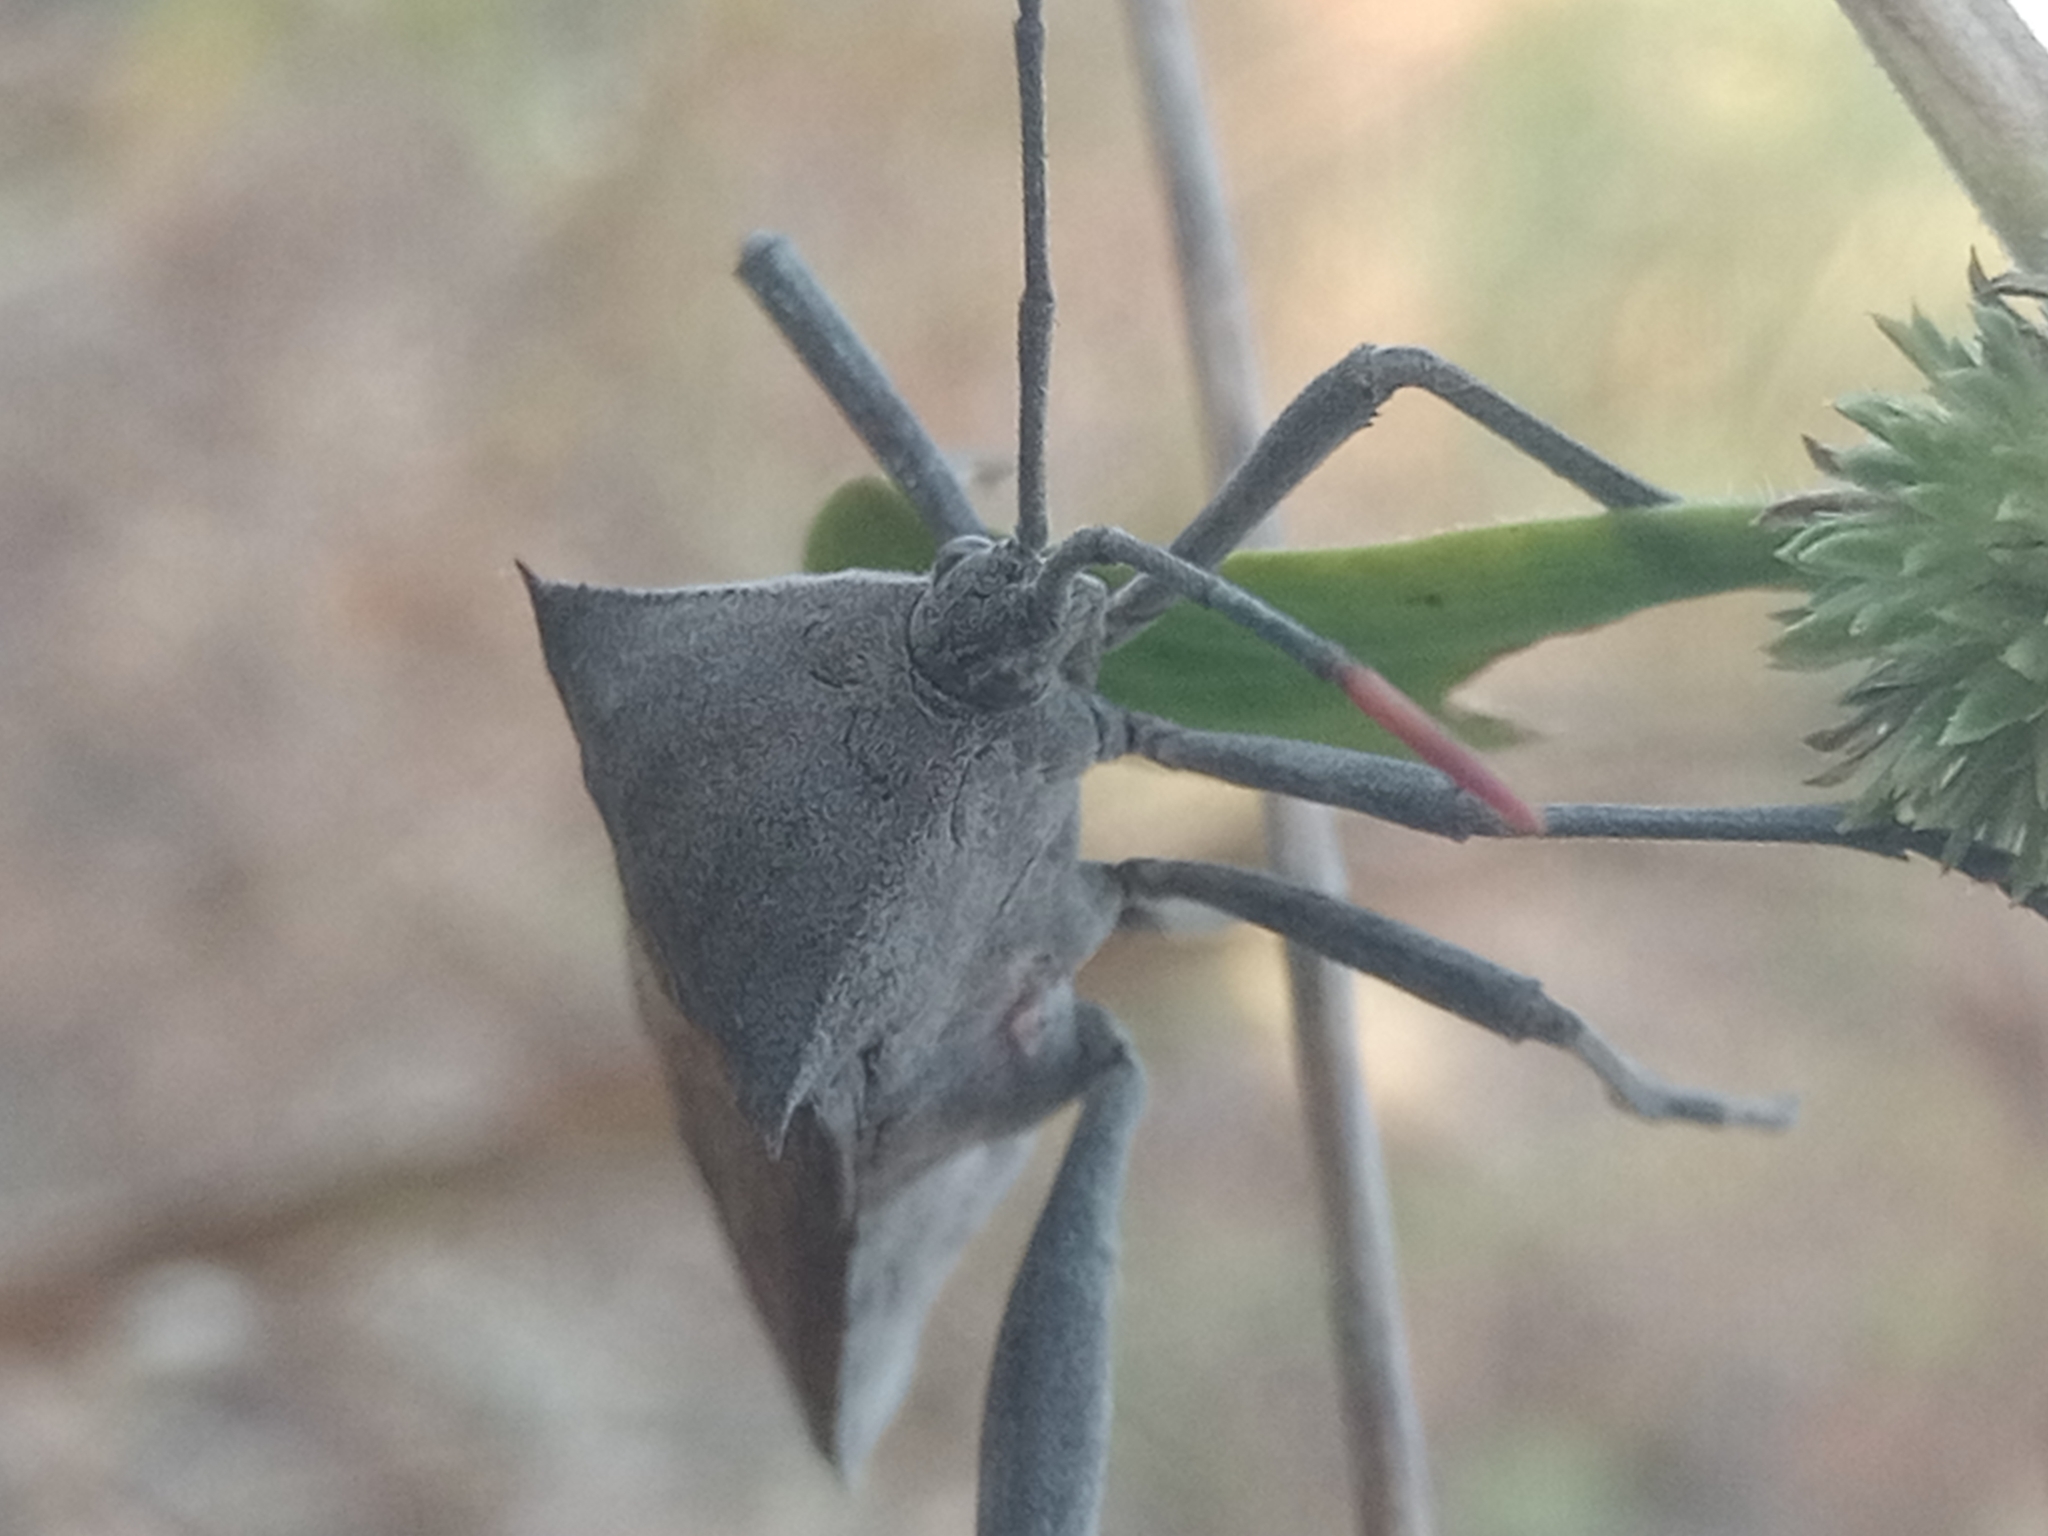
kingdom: Animalia
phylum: Arthropoda
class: Insecta
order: Hemiptera
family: Coreidae
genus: Anoplocnemis
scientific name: Anoplocnemis curvipes
